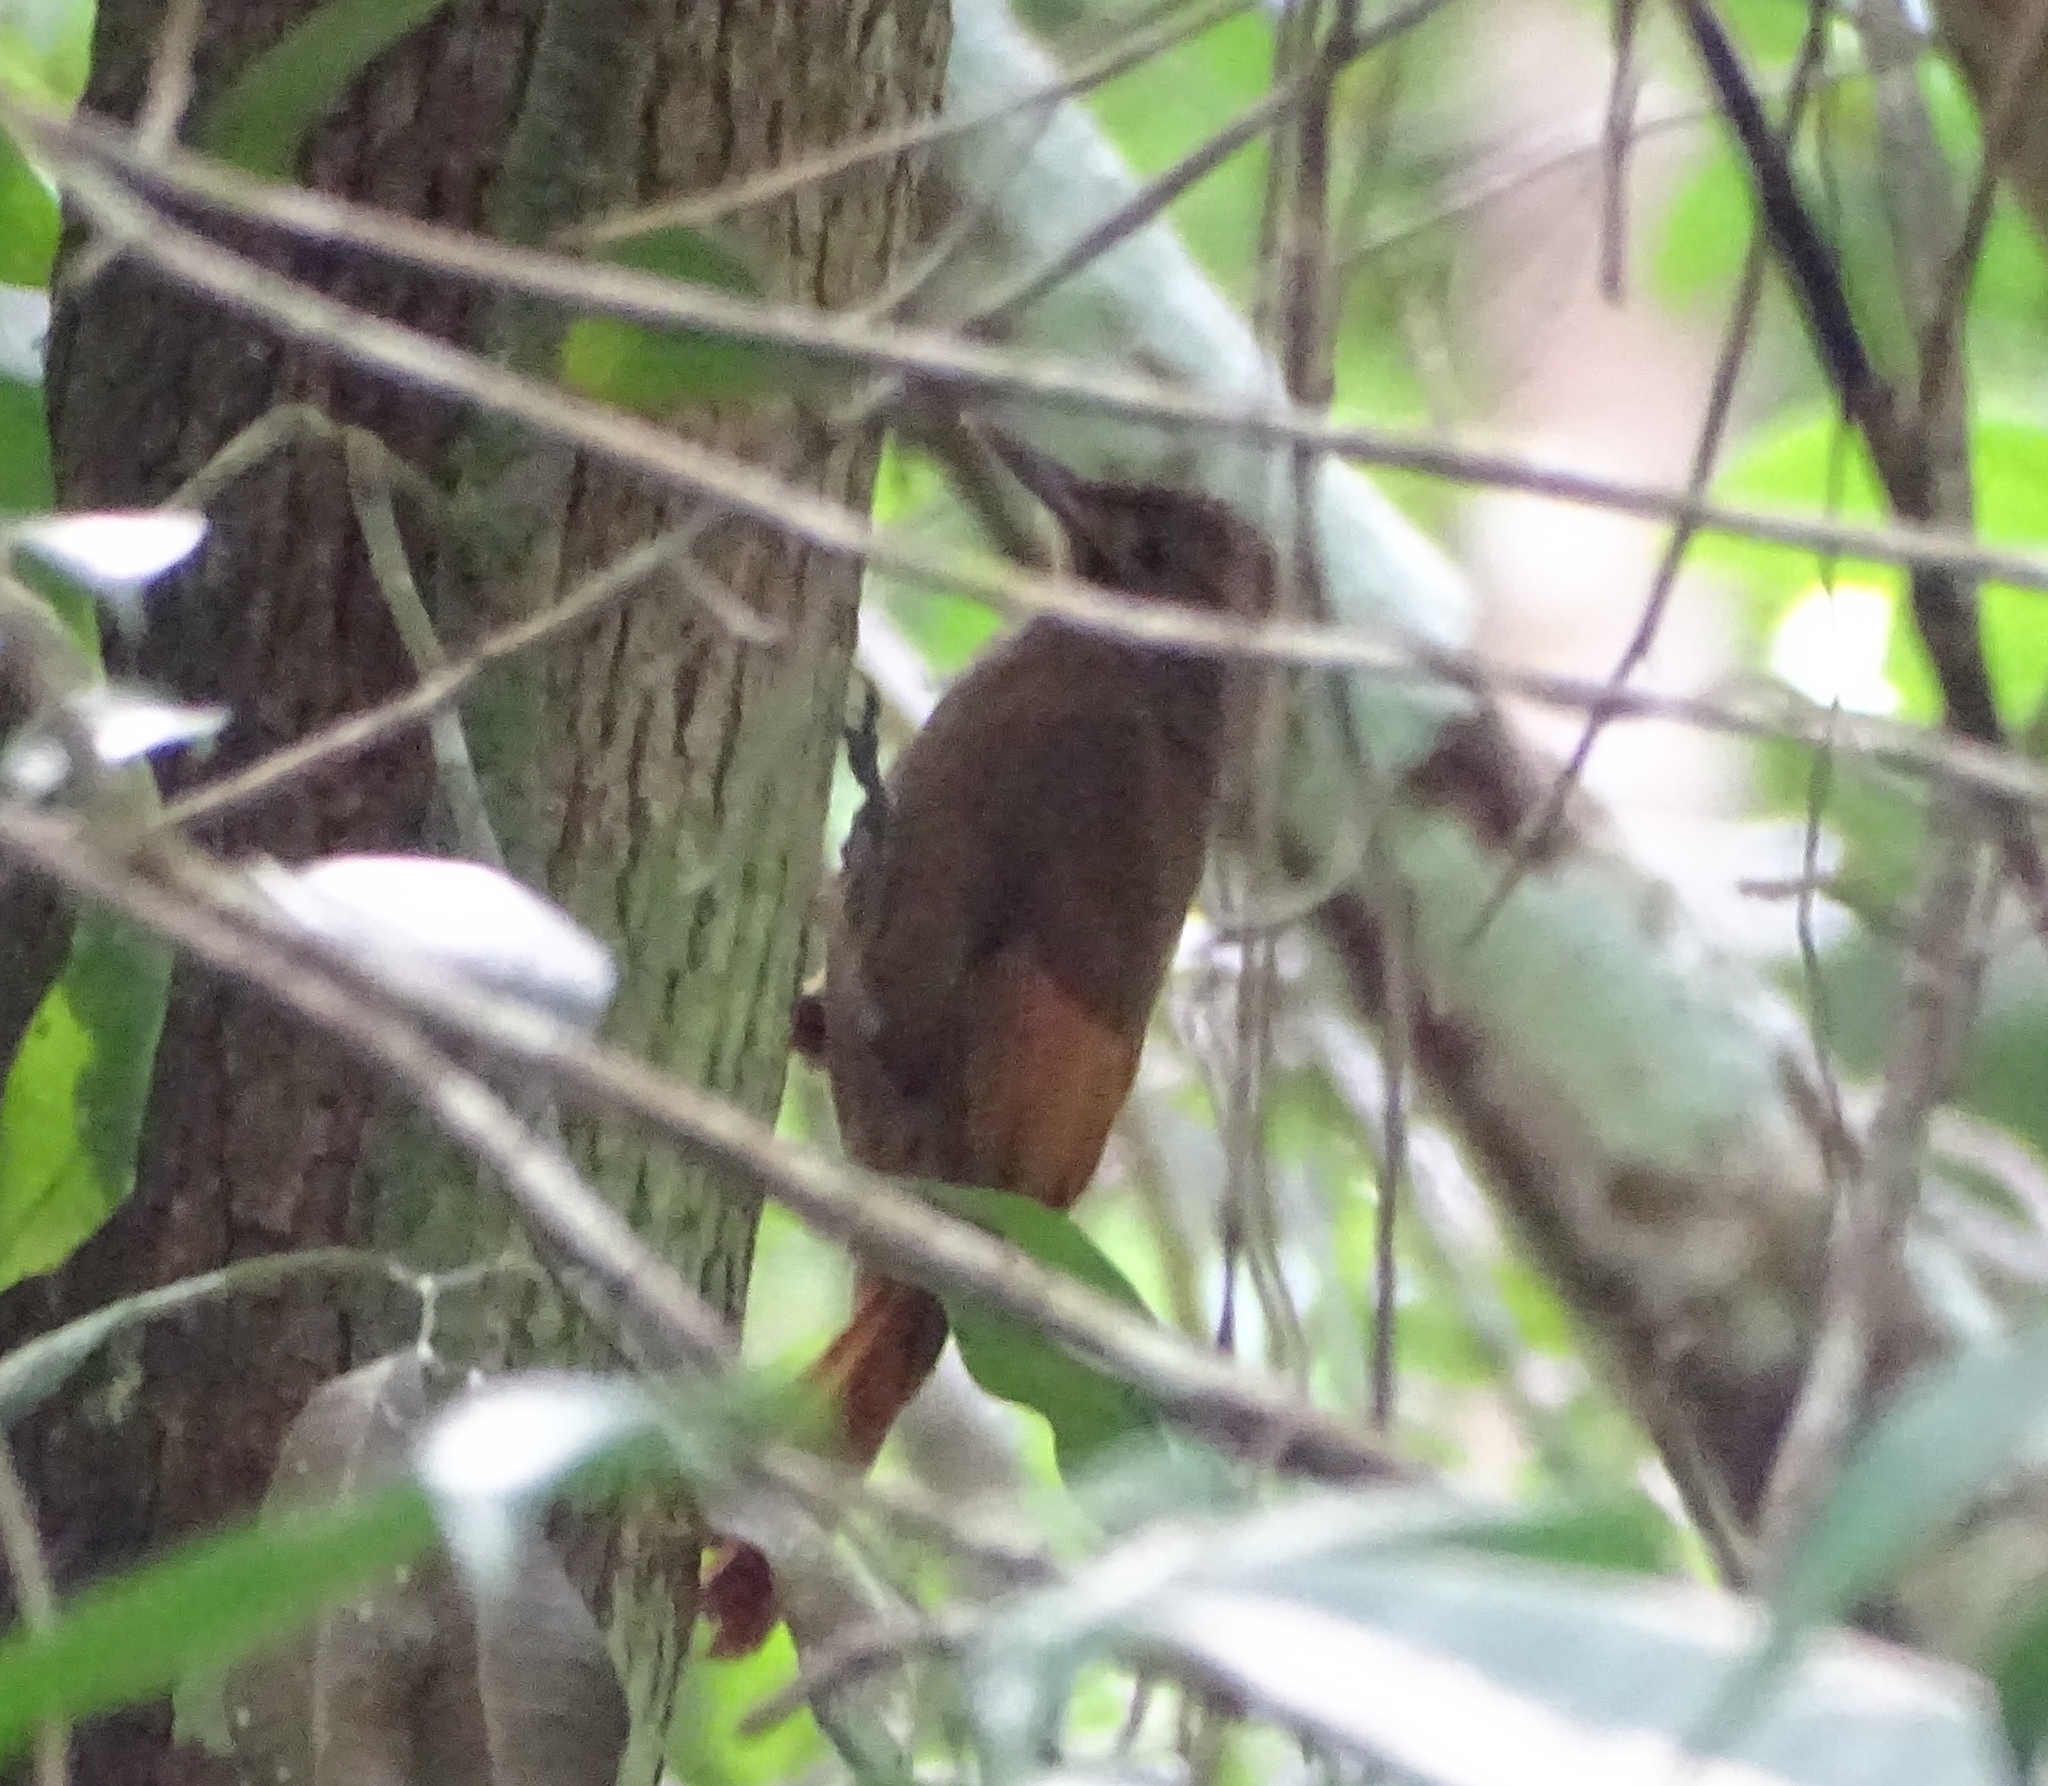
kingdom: Animalia
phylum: Chordata
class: Aves
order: Passeriformes
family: Furnariidae
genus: Dendrocincla
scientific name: Dendrocincla anabatina
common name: Tawny-winged woodcreeper
